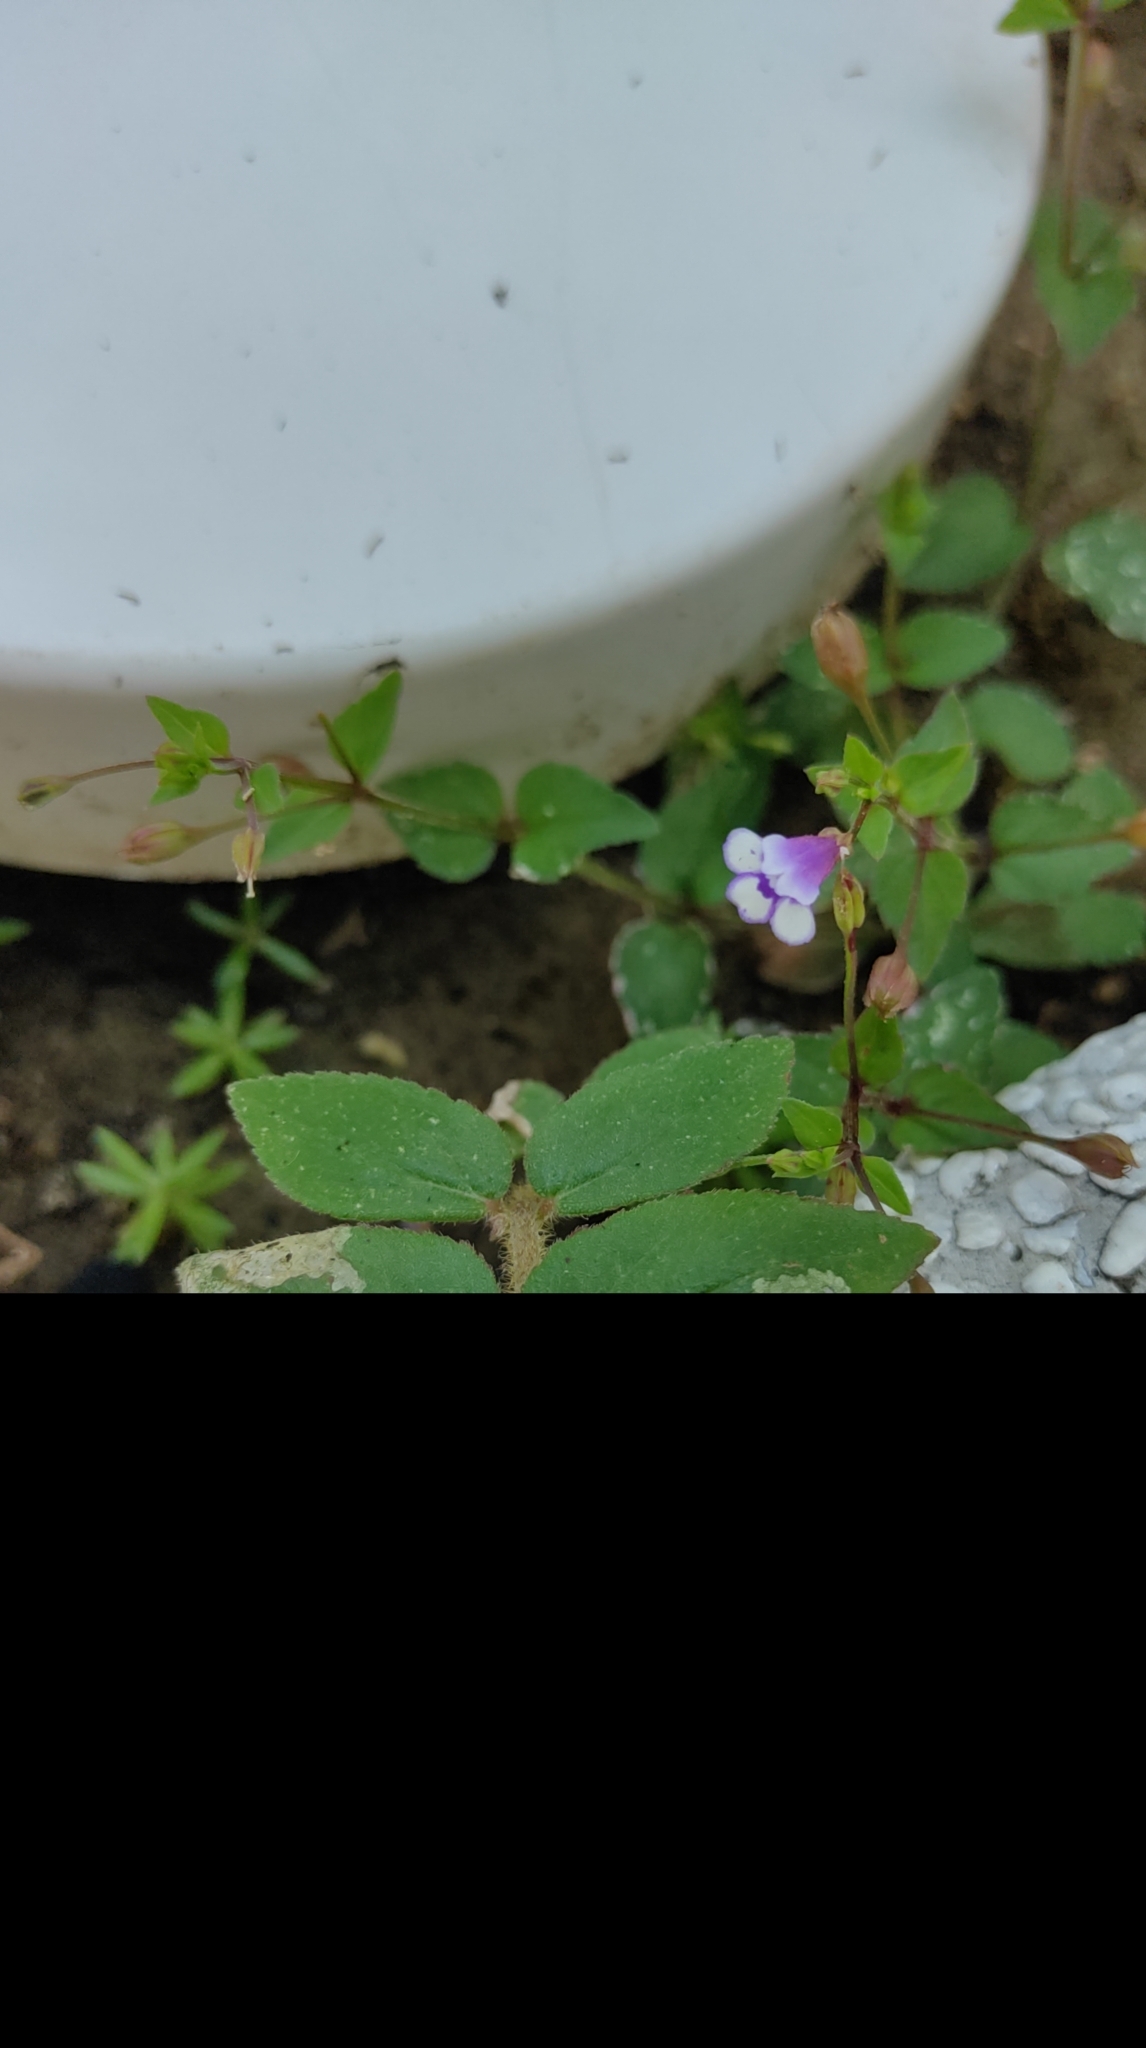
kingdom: Plantae
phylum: Tracheophyta
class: Magnoliopsida
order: Lamiales
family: Linderniaceae
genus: Torenia
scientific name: Torenia crustacea
